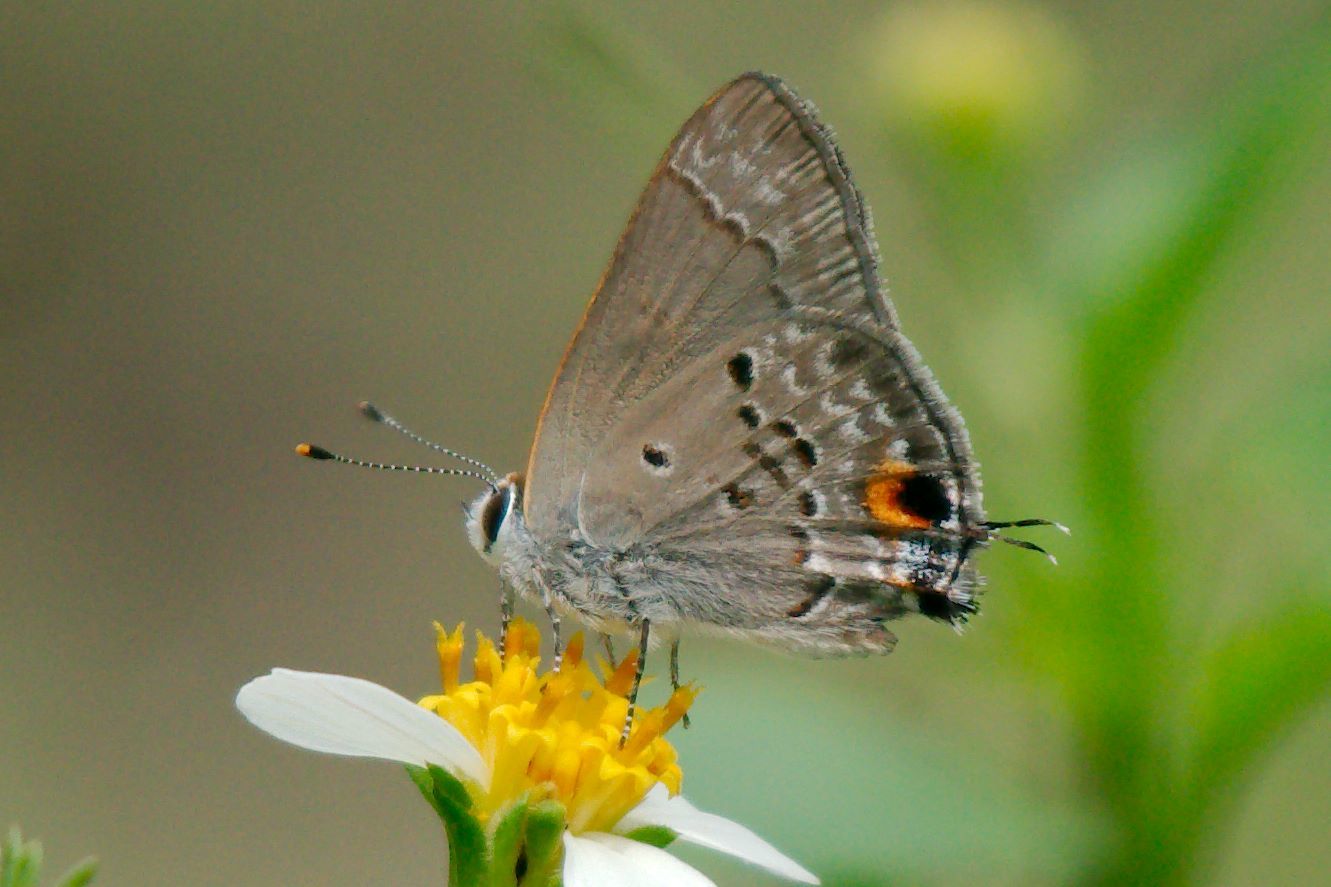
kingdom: Animalia
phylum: Arthropoda
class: Insecta
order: Lepidoptera
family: Lycaenidae
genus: Callicista
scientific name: Callicista columella
